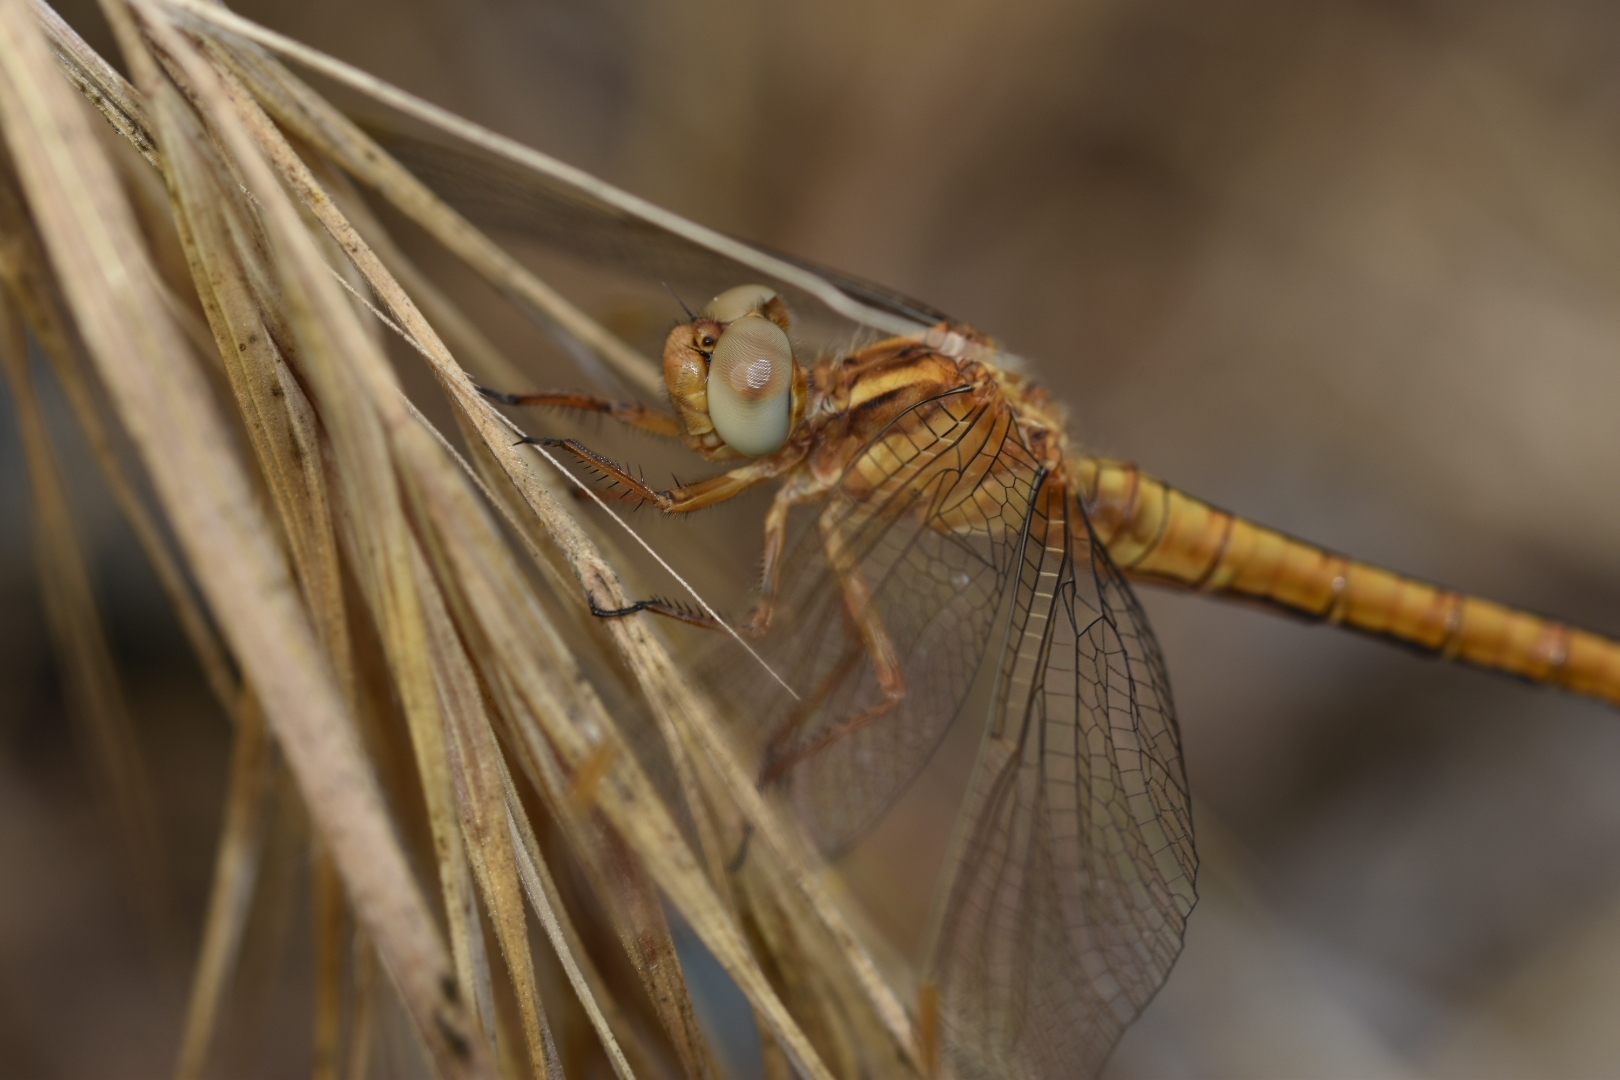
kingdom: Animalia
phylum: Arthropoda
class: Insecta
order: Odonata
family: Libellulidae
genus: Orthetrum
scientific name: Orthetrum coerulescens
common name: Keeled skimmer
